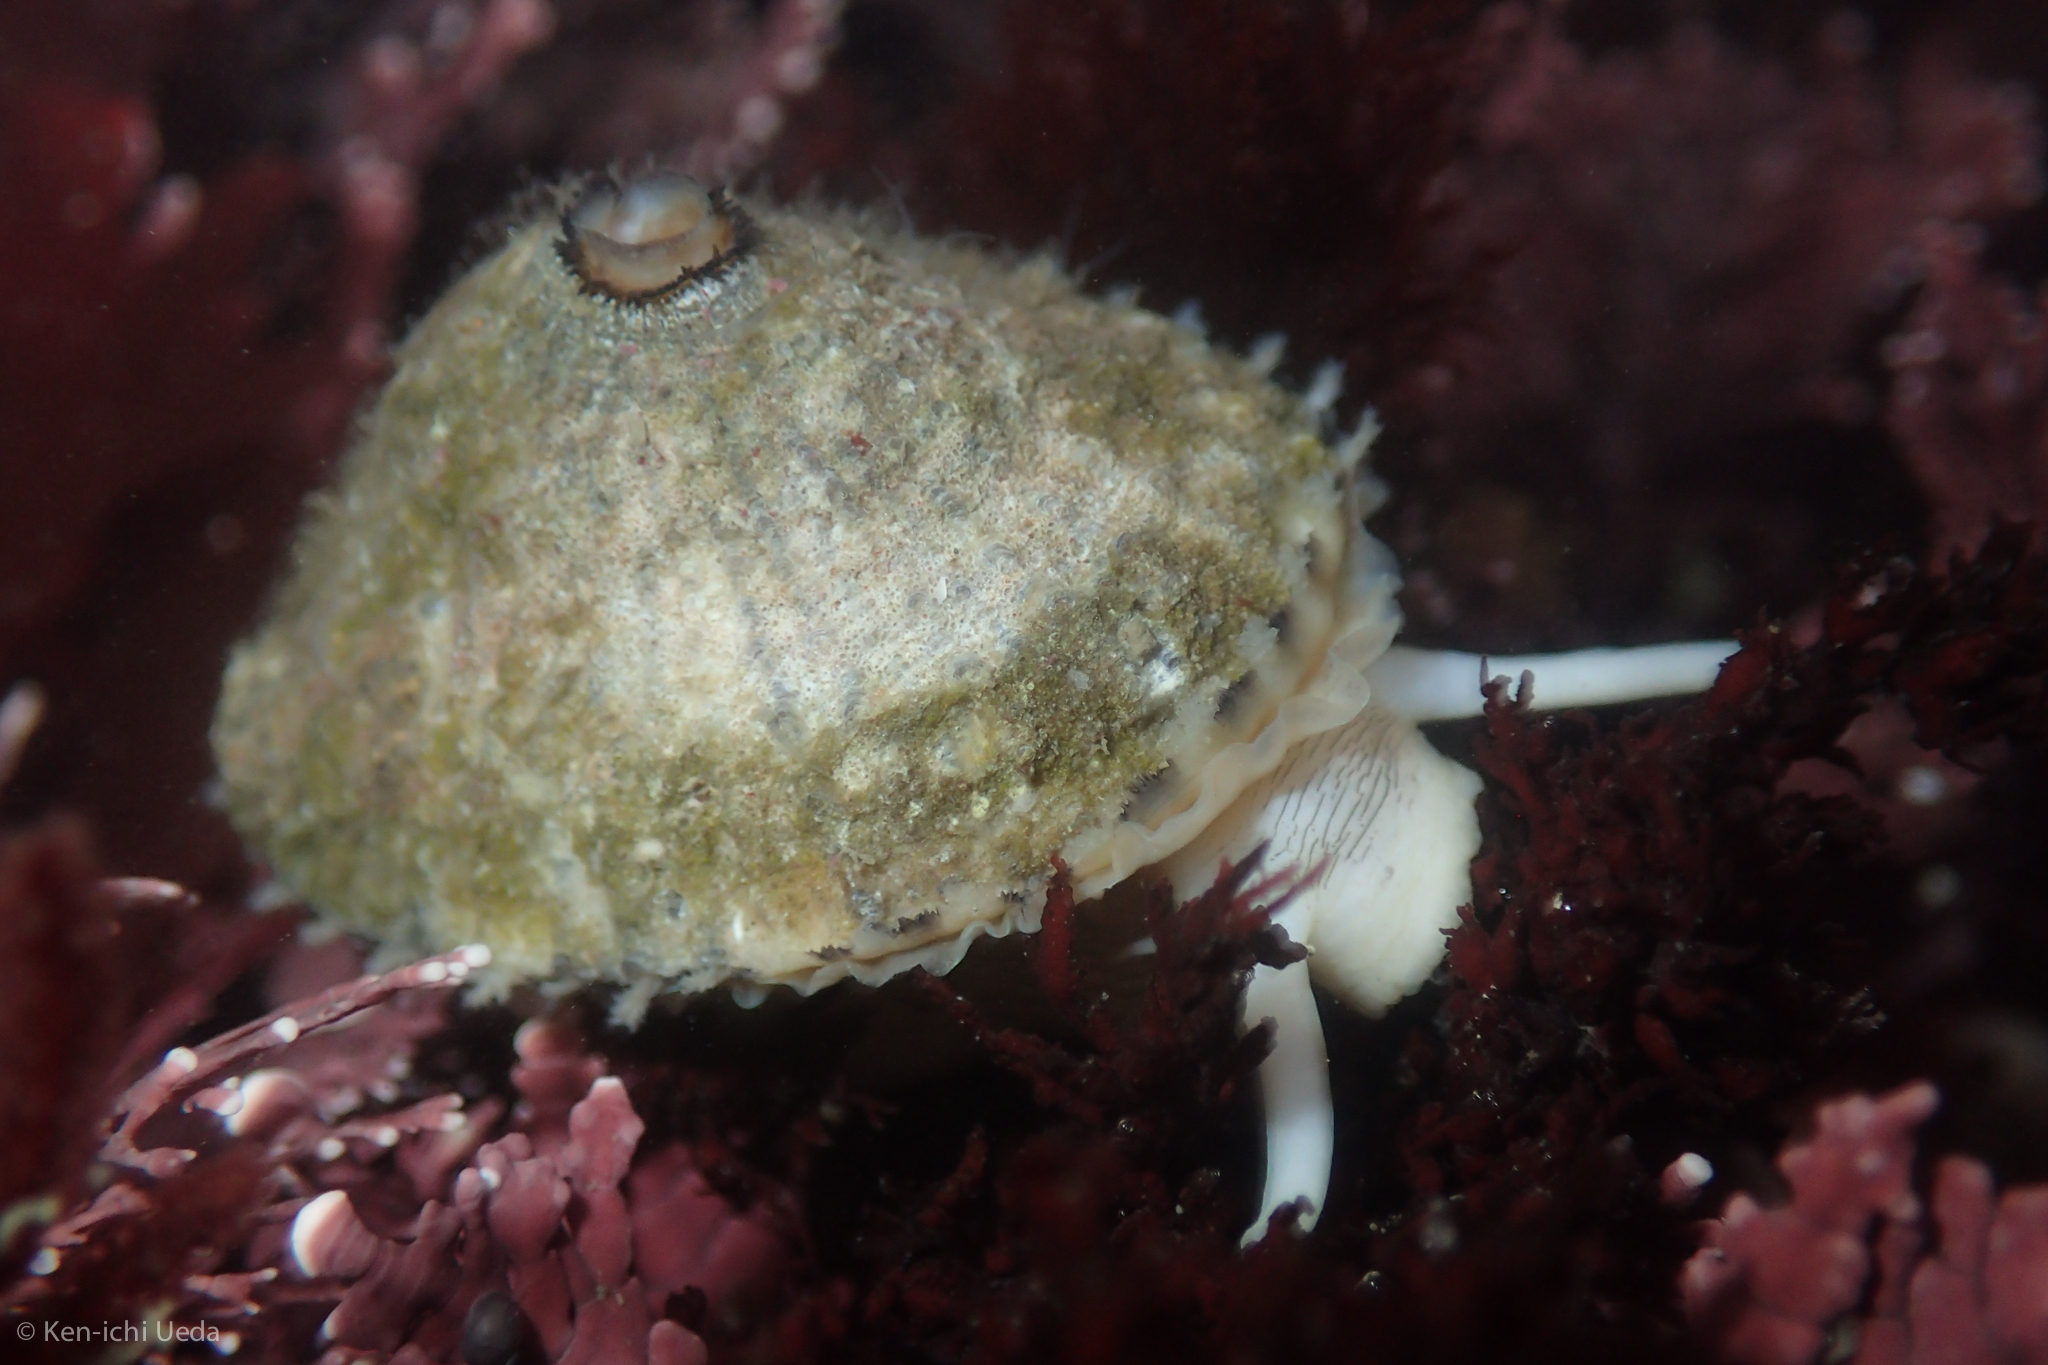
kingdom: Animalia
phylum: Mollusca
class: Gastropoda
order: Lepetellida
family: Fissurellidae
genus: Diodora
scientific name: Diodora aspera
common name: Rough keyhole limpet
